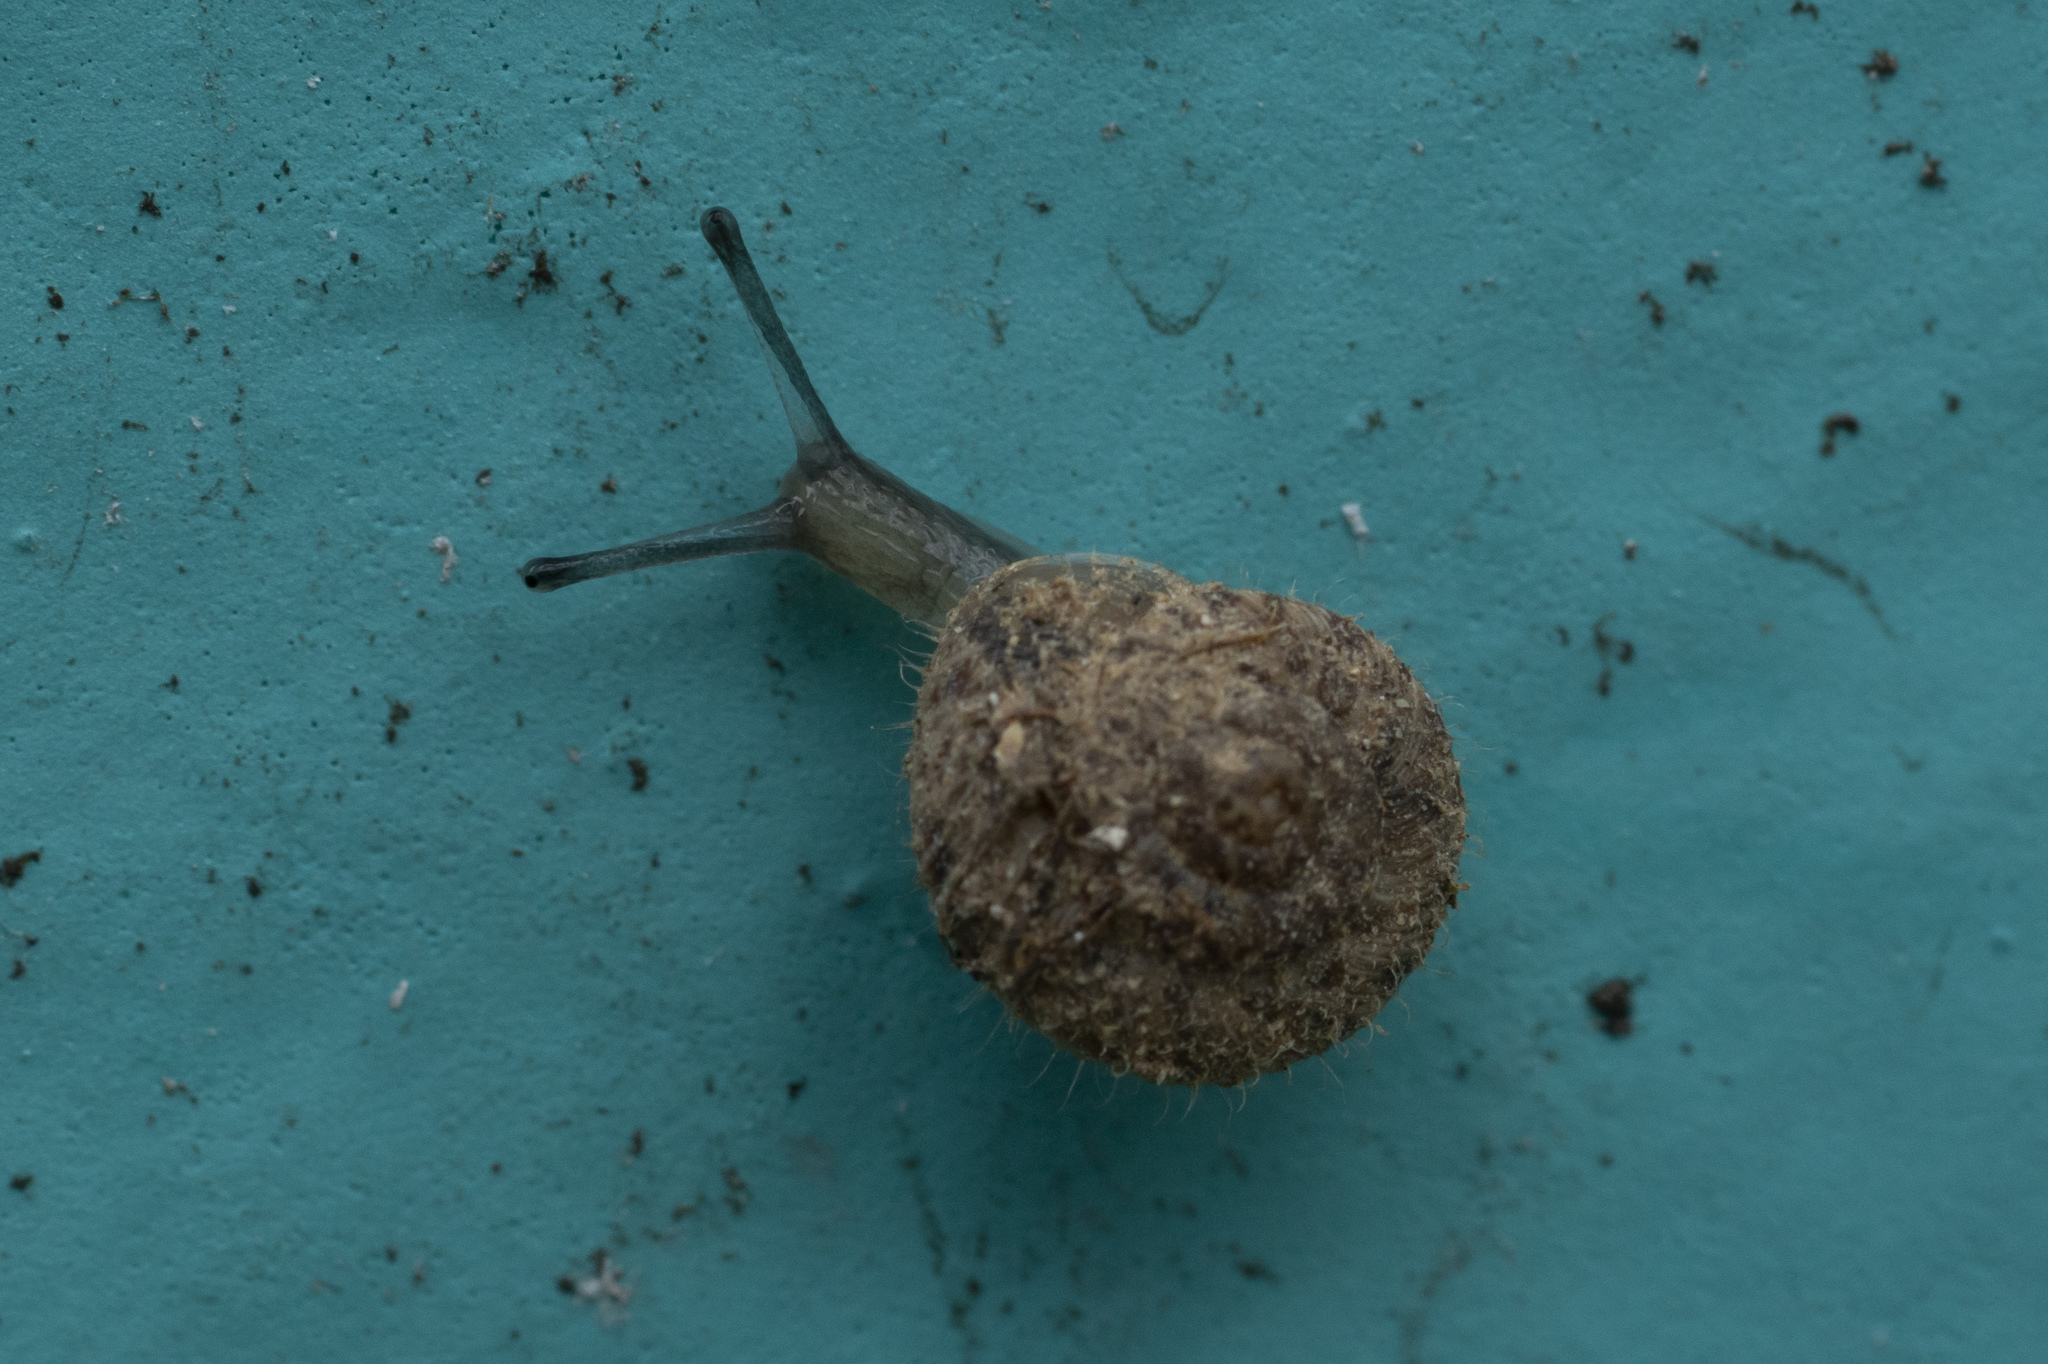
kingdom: Animalia
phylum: Mollusca
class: Gastropoda
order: Stylommatophora
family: Geomitridae
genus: Xerotricha
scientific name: Xerotricha conspurcata
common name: Snail
